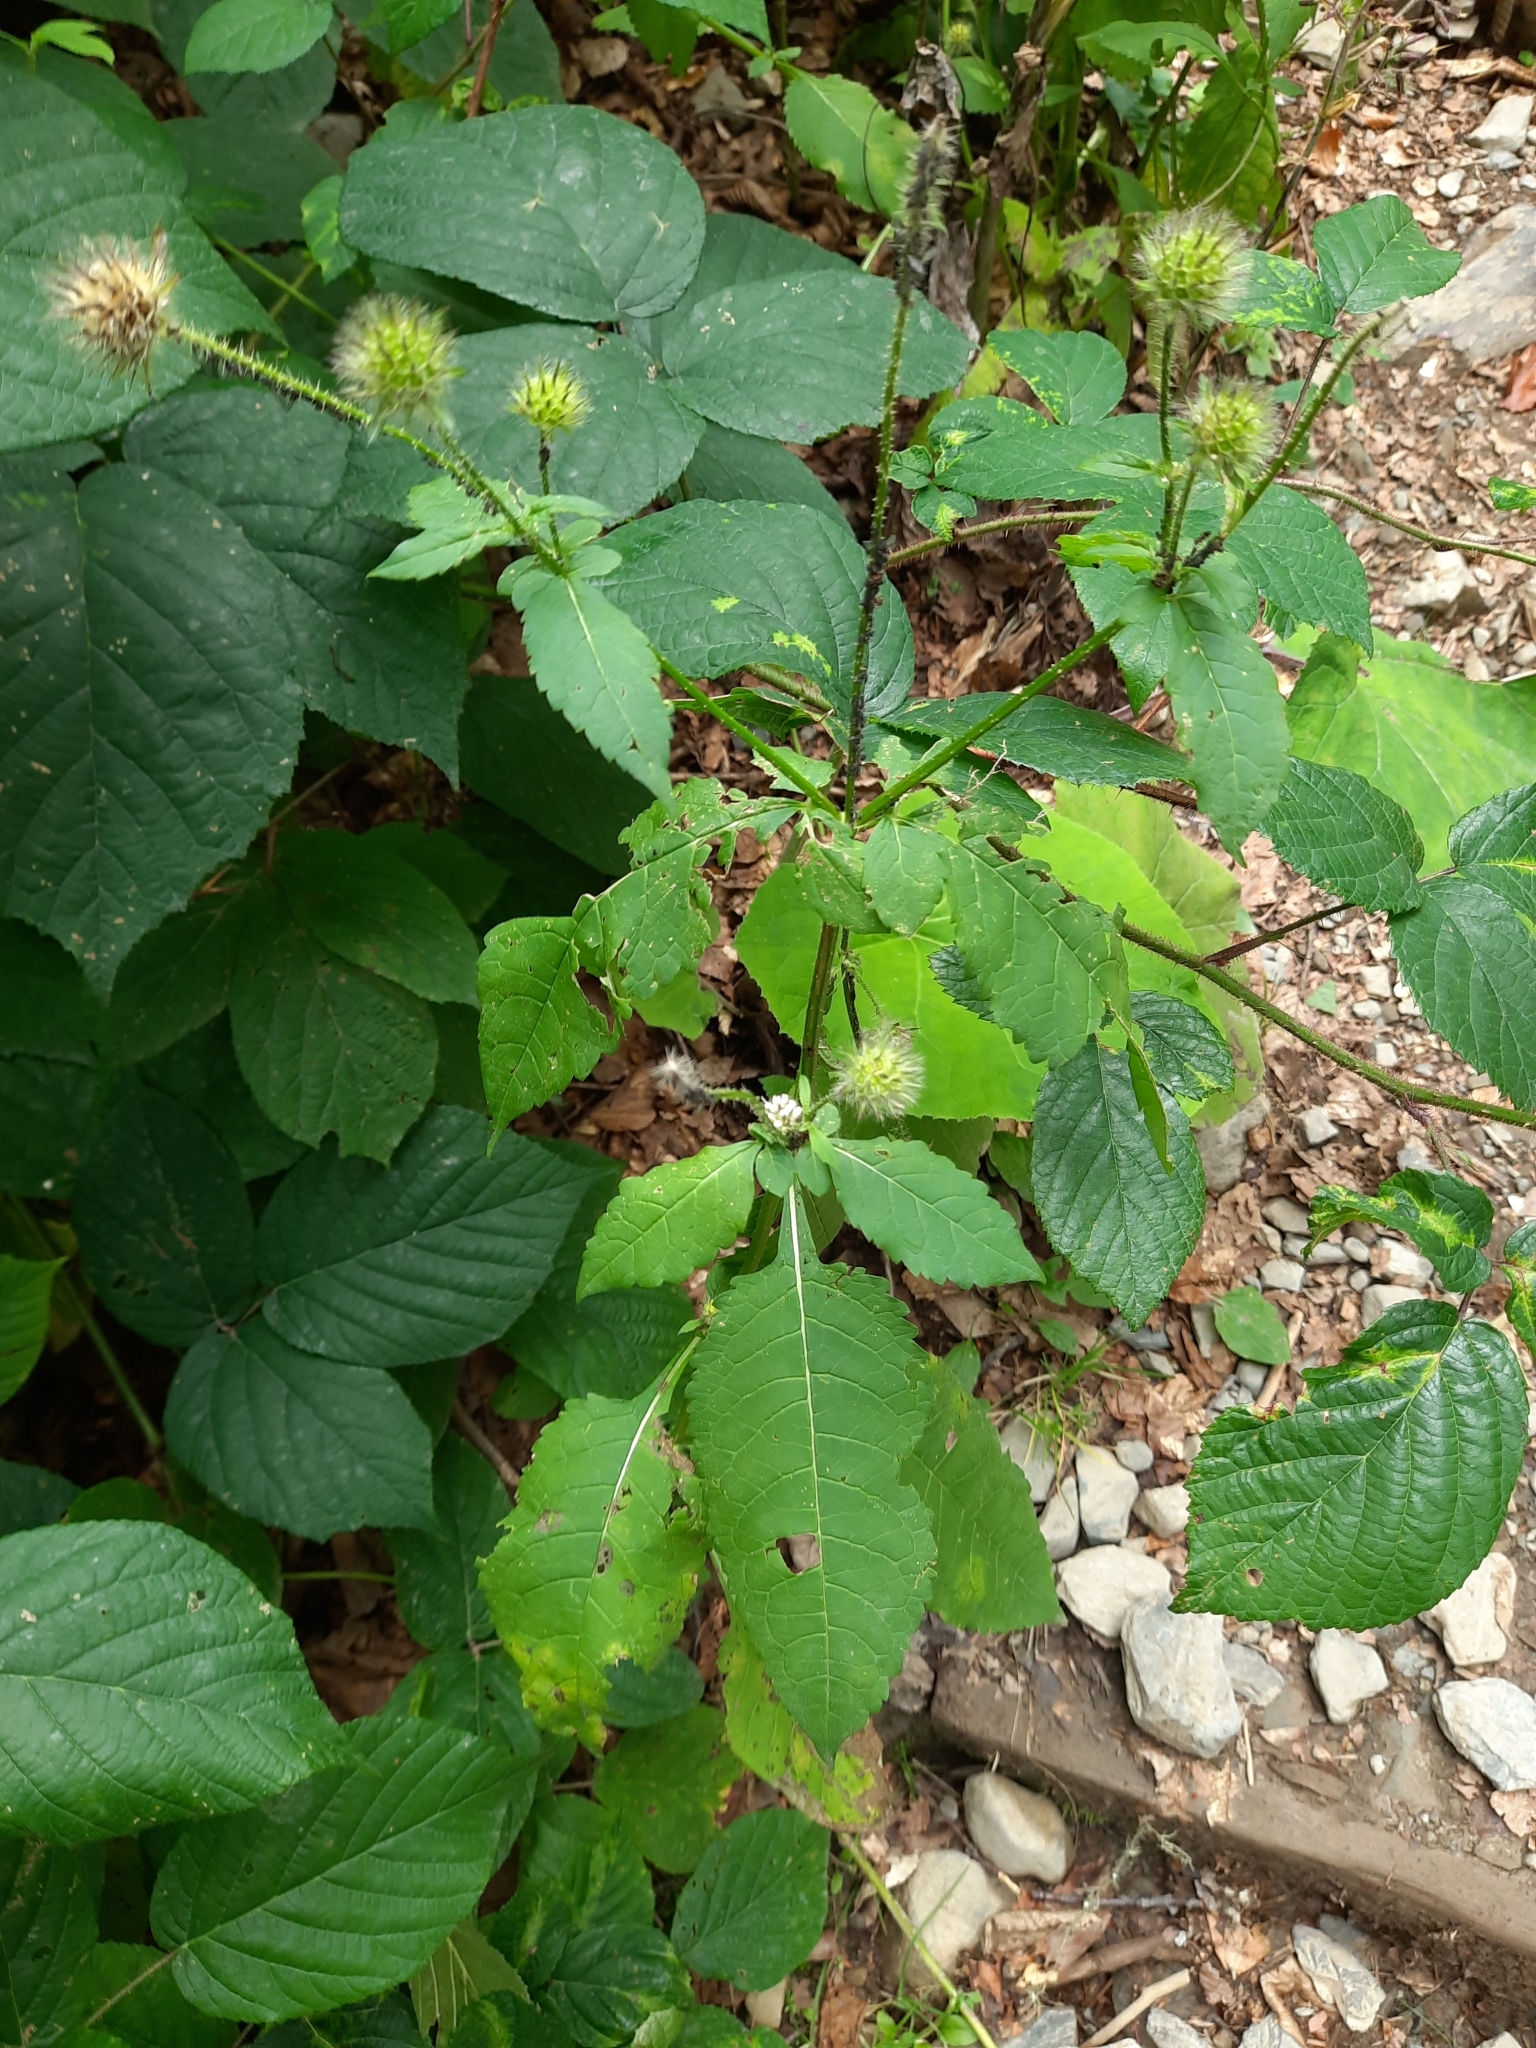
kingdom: Plantae
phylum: Tracheophyta
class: Magnoliopsida
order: Dipsacales
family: Caprifoliaceae
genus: Dipsacus
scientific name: Dipsacus pilosus
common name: Small teasel
